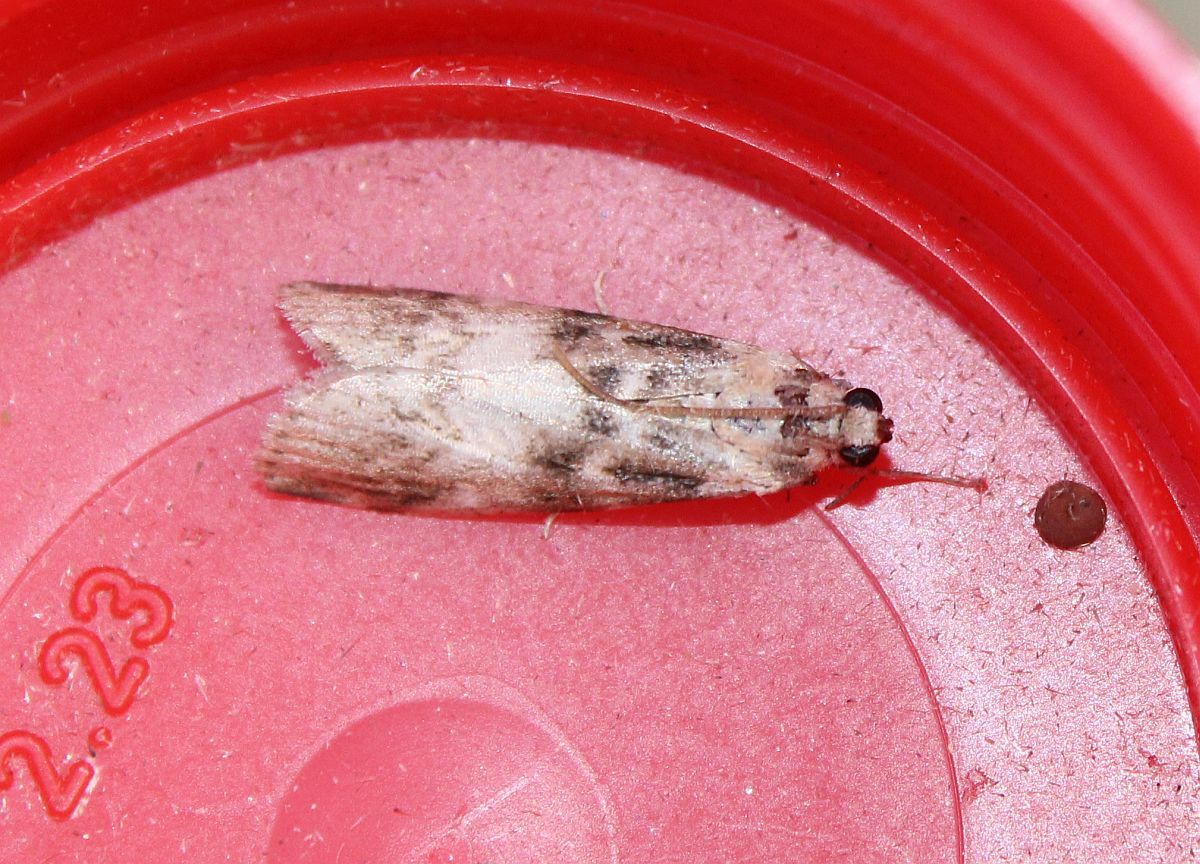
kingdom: Animalia
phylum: Arthropoda
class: Insecta
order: Lepidoptera
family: Pyralidae
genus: Euzophera
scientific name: Euzophera pinguis
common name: Ash-bark knot-horn
